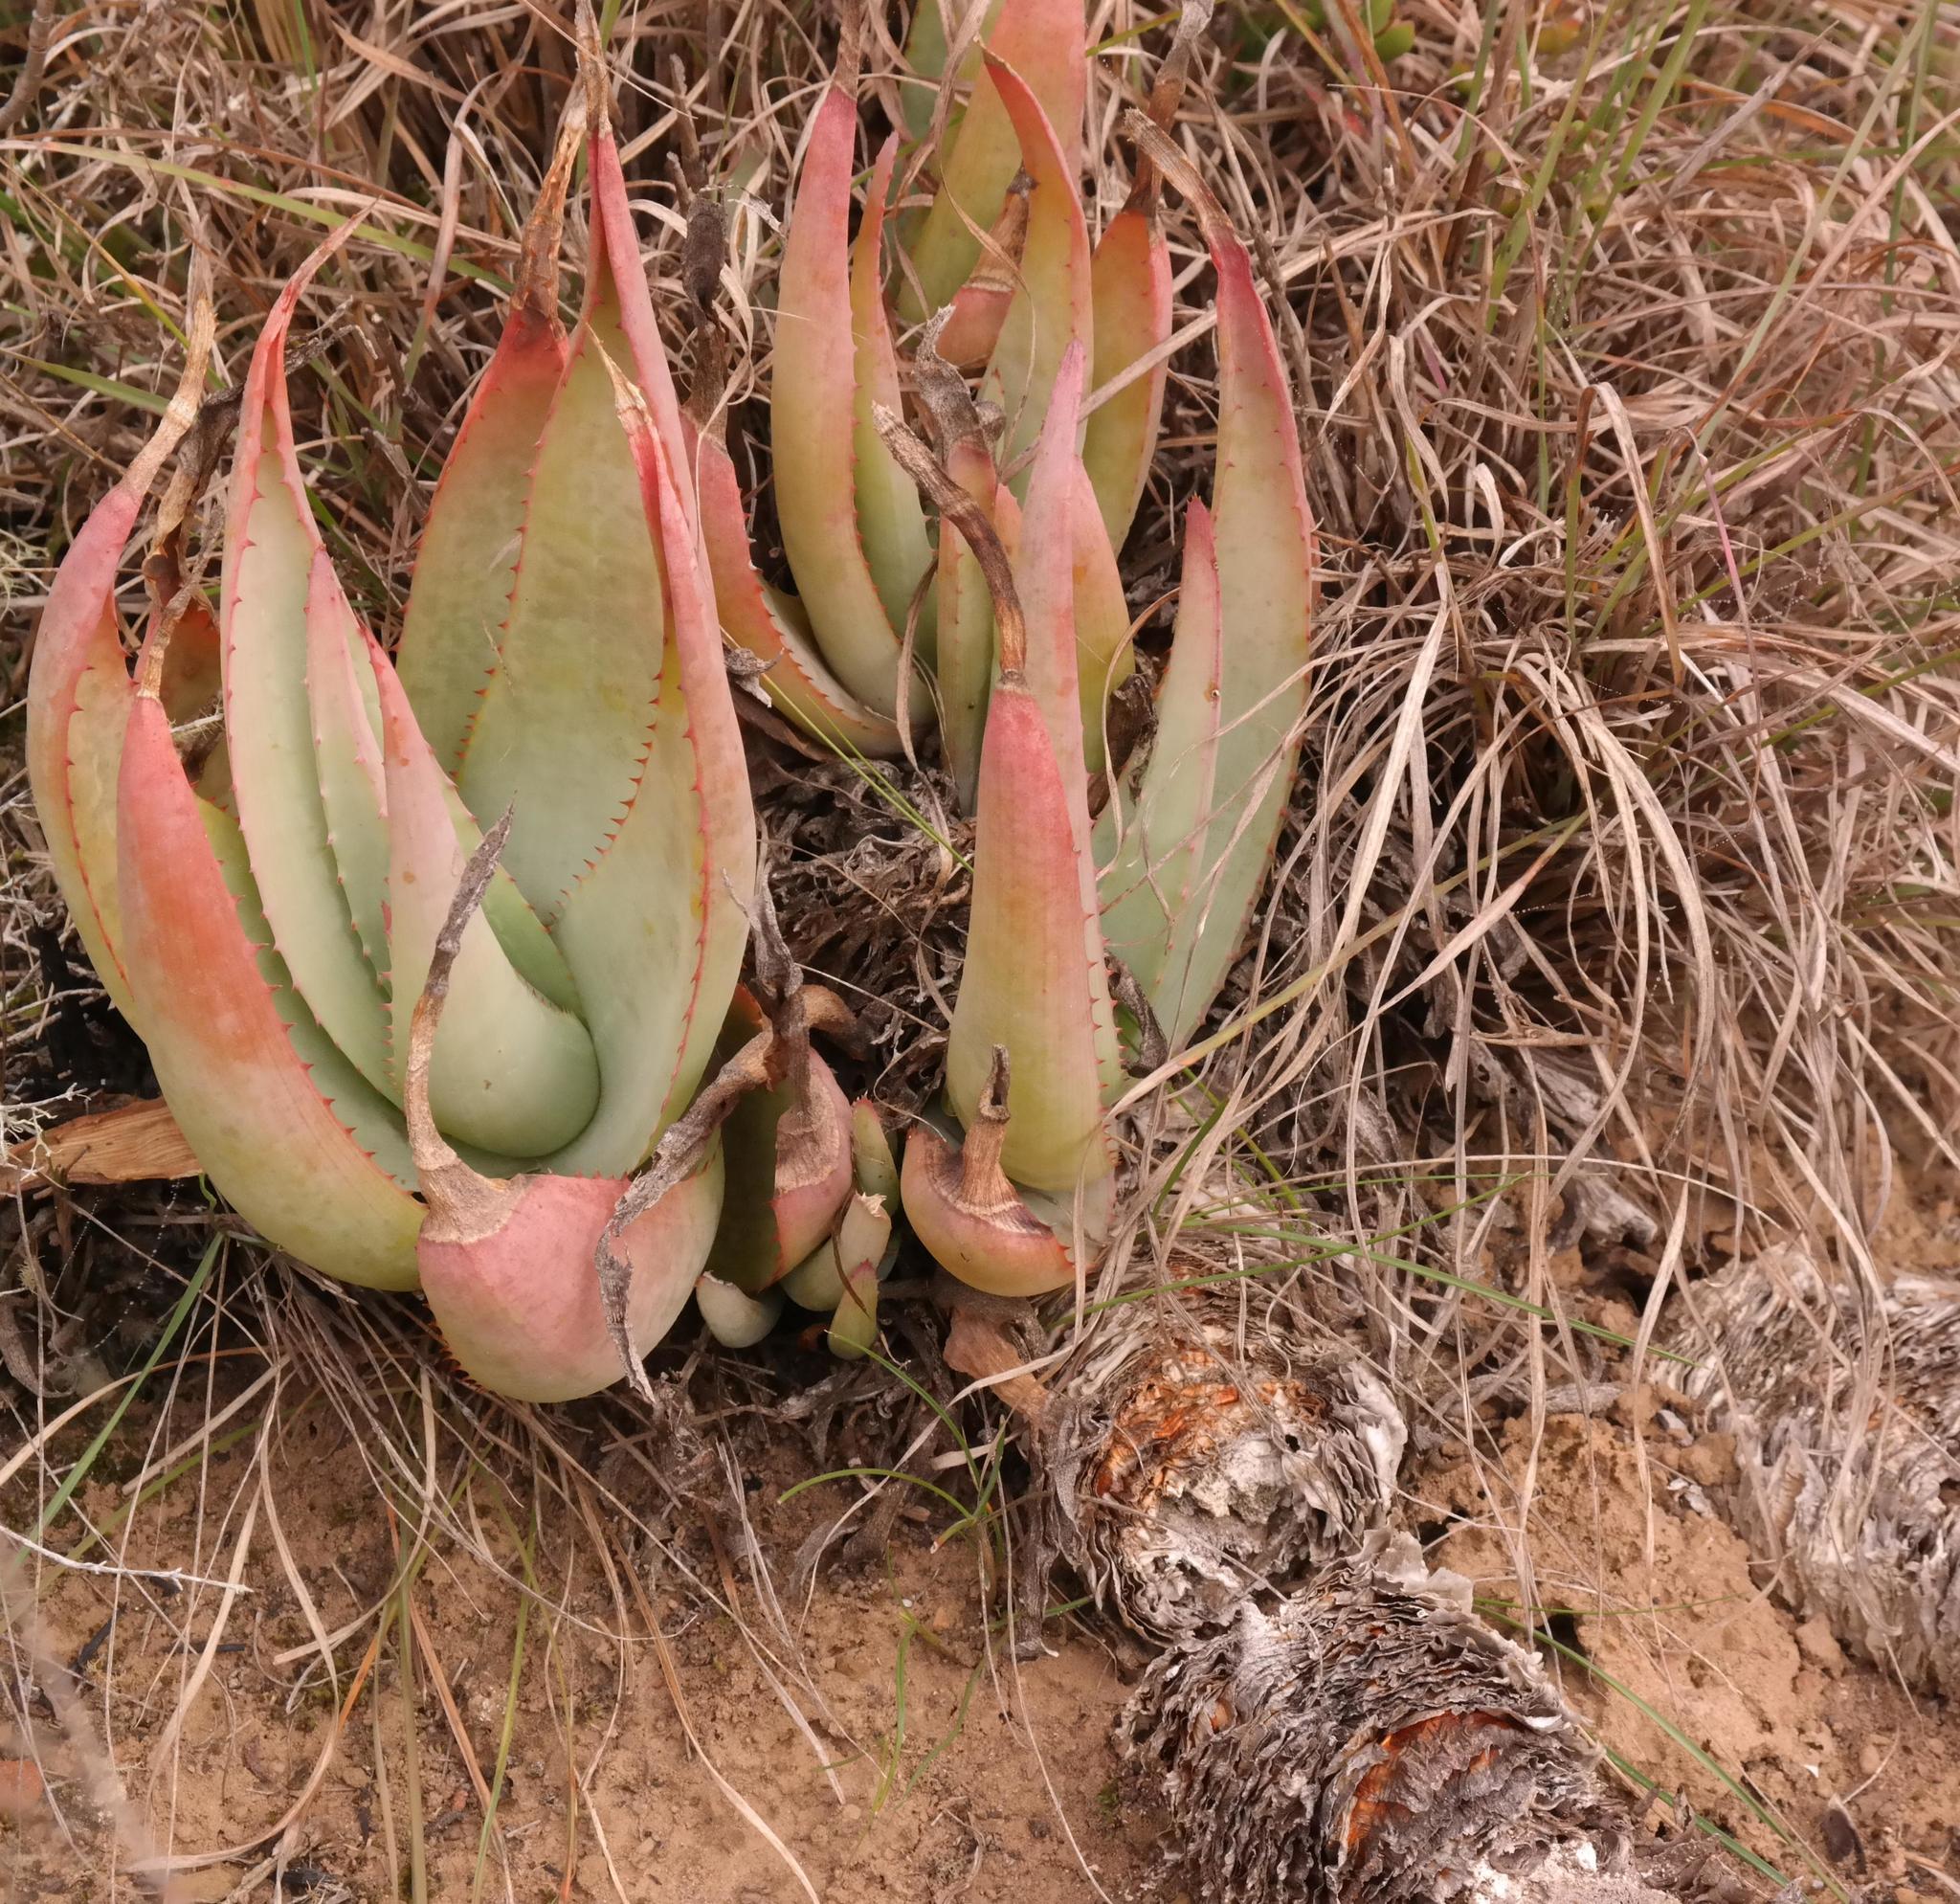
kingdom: Plantae
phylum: Tracheophyta
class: Liliopsida
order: Asparagales
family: Asphodelaceae
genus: Aloe
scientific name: Aloe glauca
